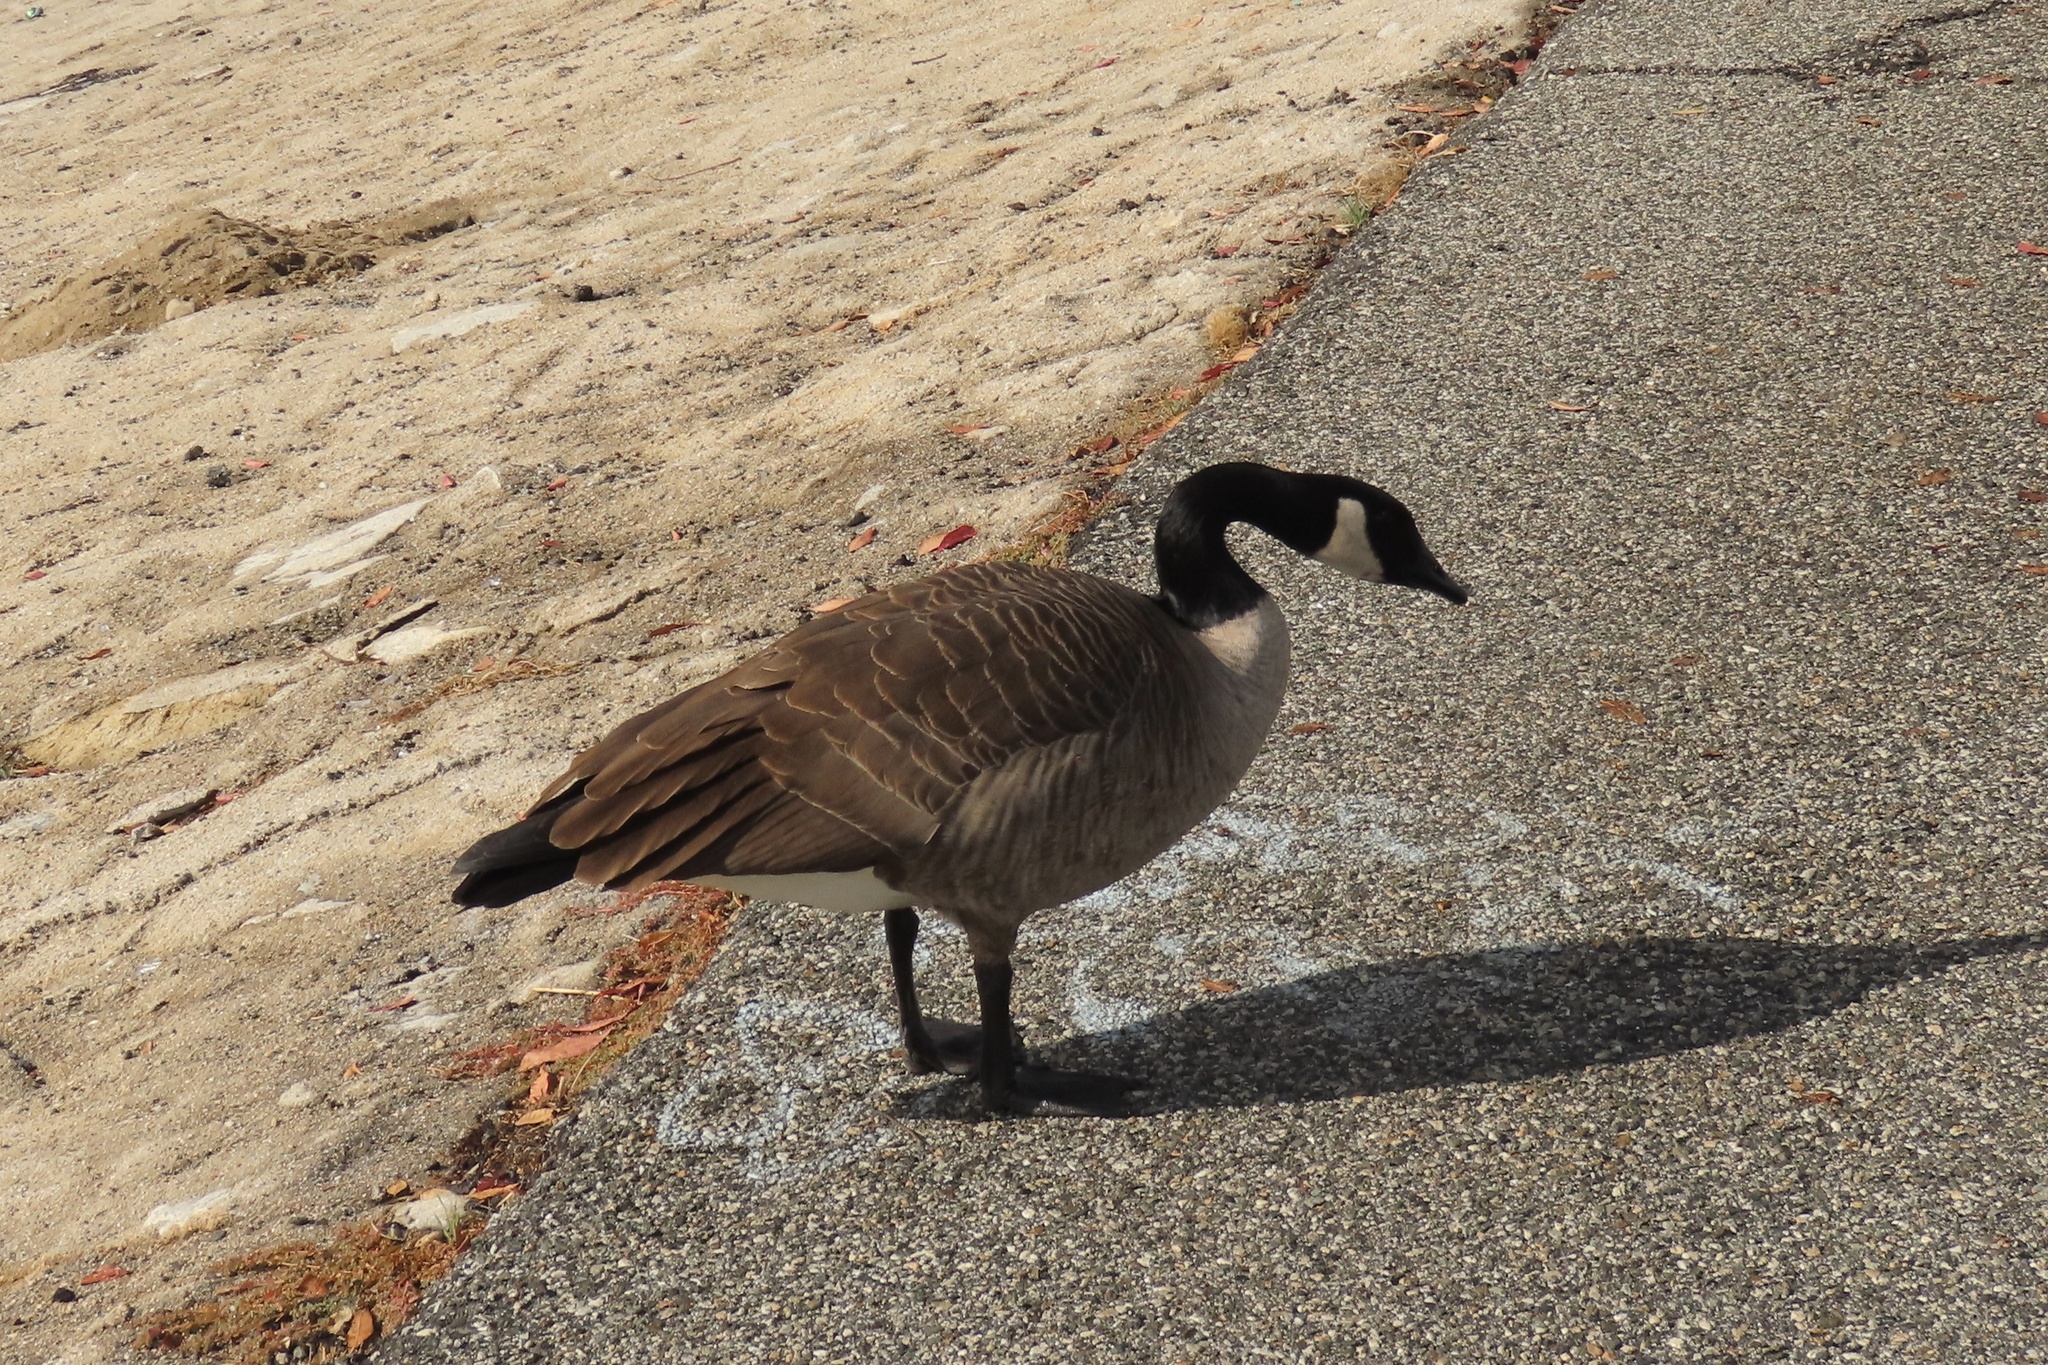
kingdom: Animalia
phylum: Chordata
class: Aves
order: Anseriformes
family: Anatidae
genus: Branta
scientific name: Branta canadensis
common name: Canada goose
